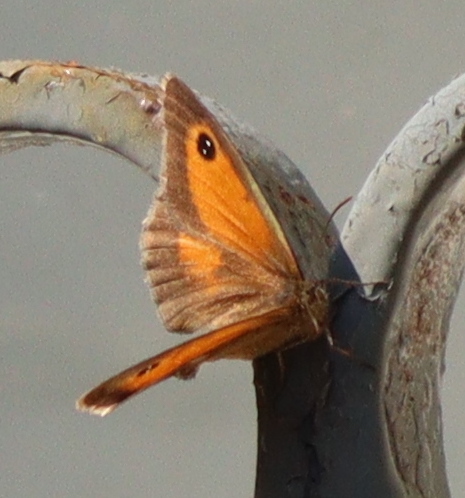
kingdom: Animalia
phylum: Arthropoda
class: Insecta
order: Lepidoptera
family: Nymphalidae
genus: Pyronia
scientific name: Pyronia tithonus
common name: Gatekeeper
